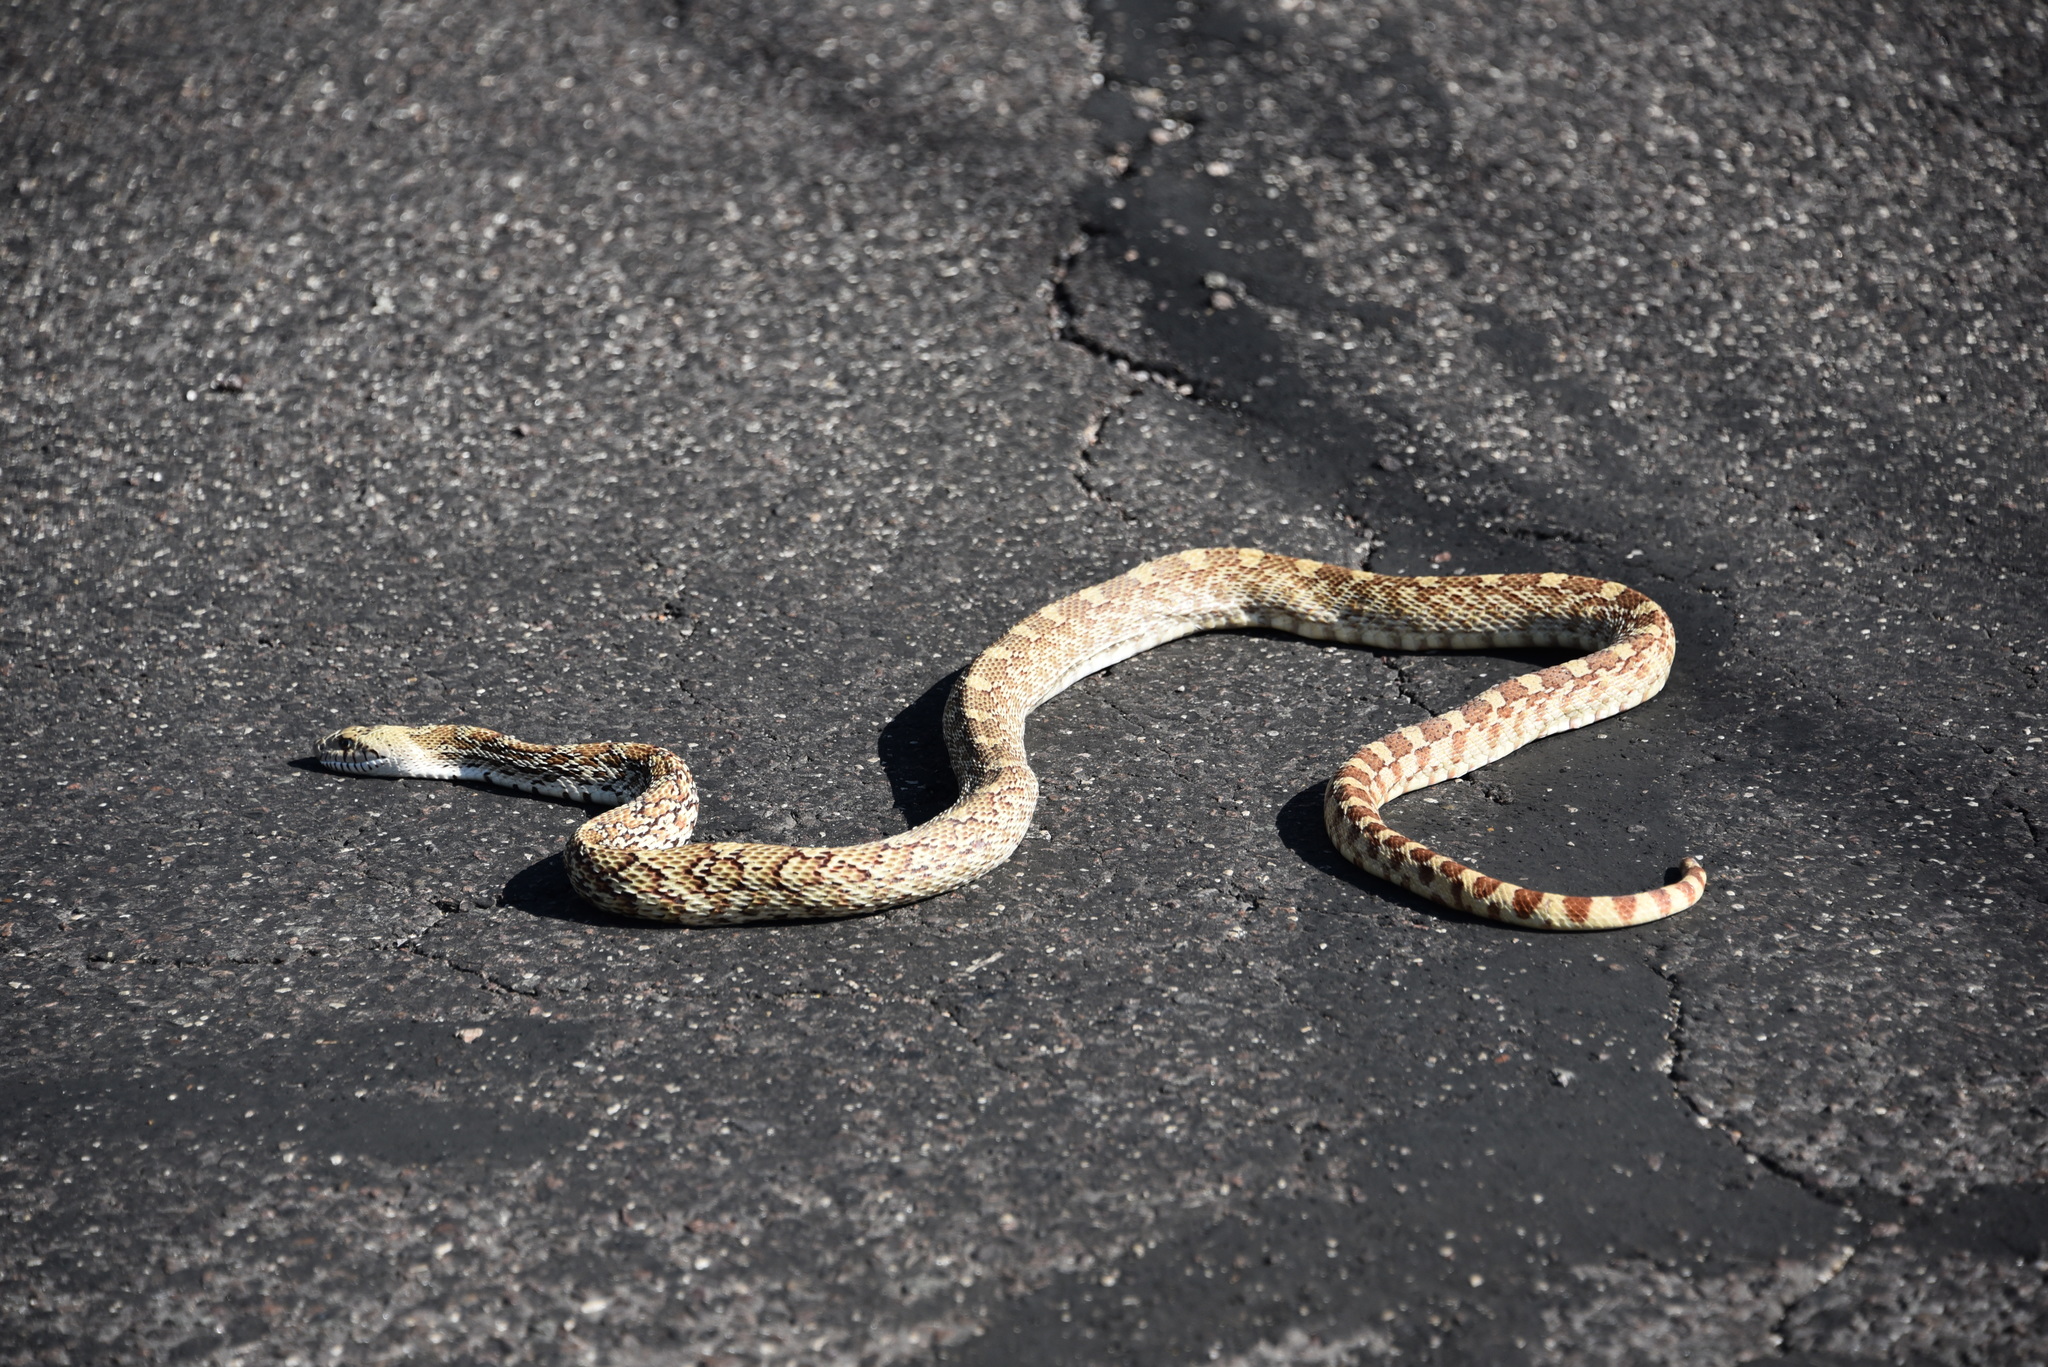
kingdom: Animalia
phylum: Chordata
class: Squamata
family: Colubridae
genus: Pituophis
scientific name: Pituophis catenifer
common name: Gopher snake
